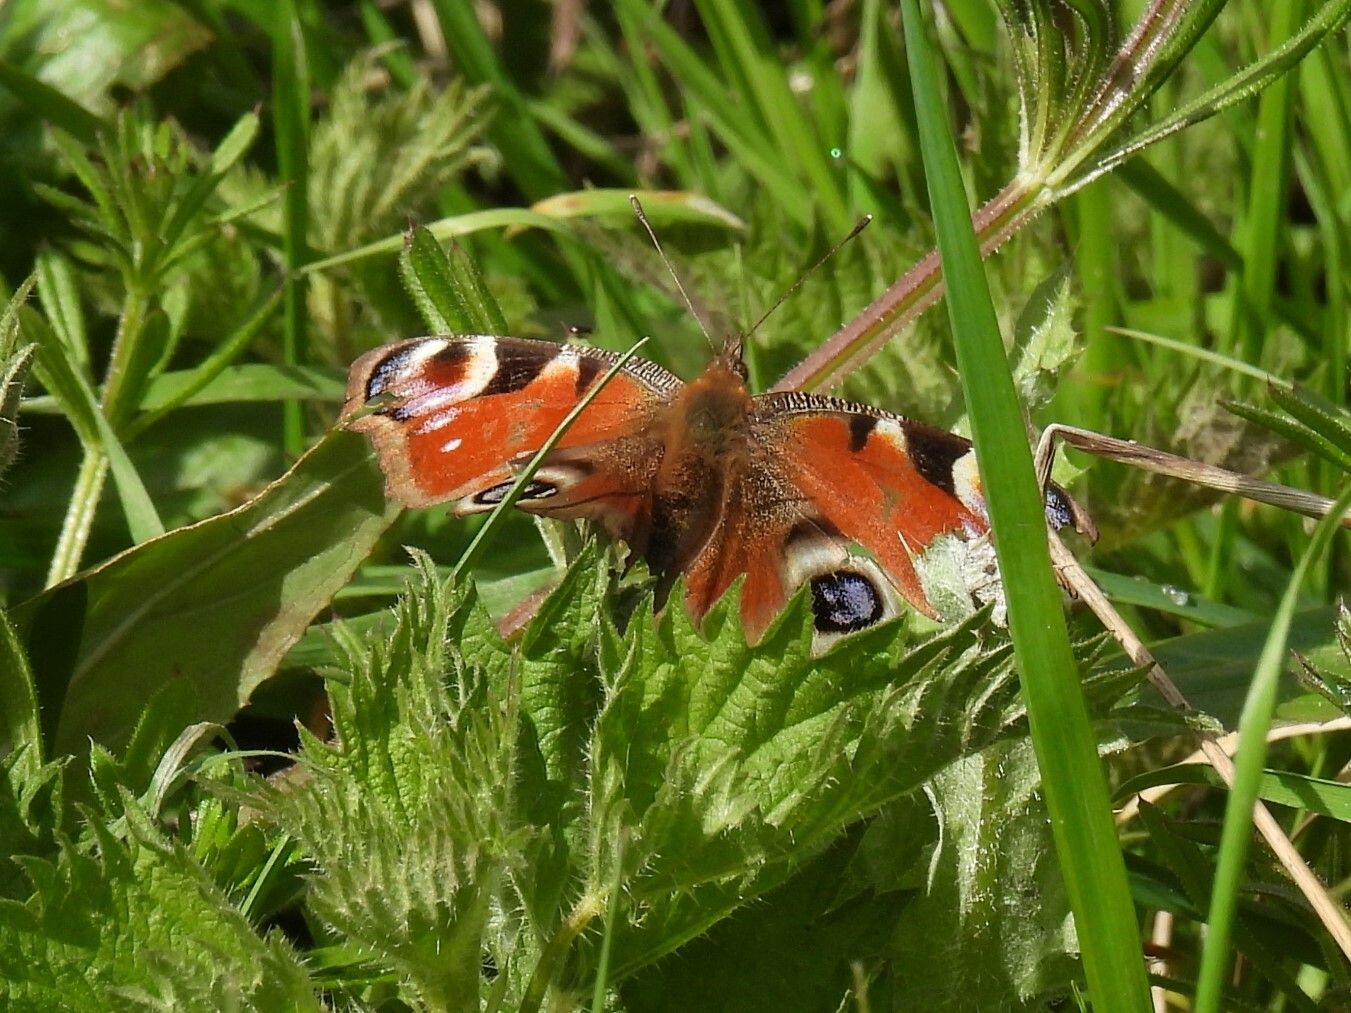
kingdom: Animalia
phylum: Arthropoda
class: Insecta
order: Lepidoptera
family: Nymphalidae
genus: Aglais
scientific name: Aglais io
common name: Peacock
